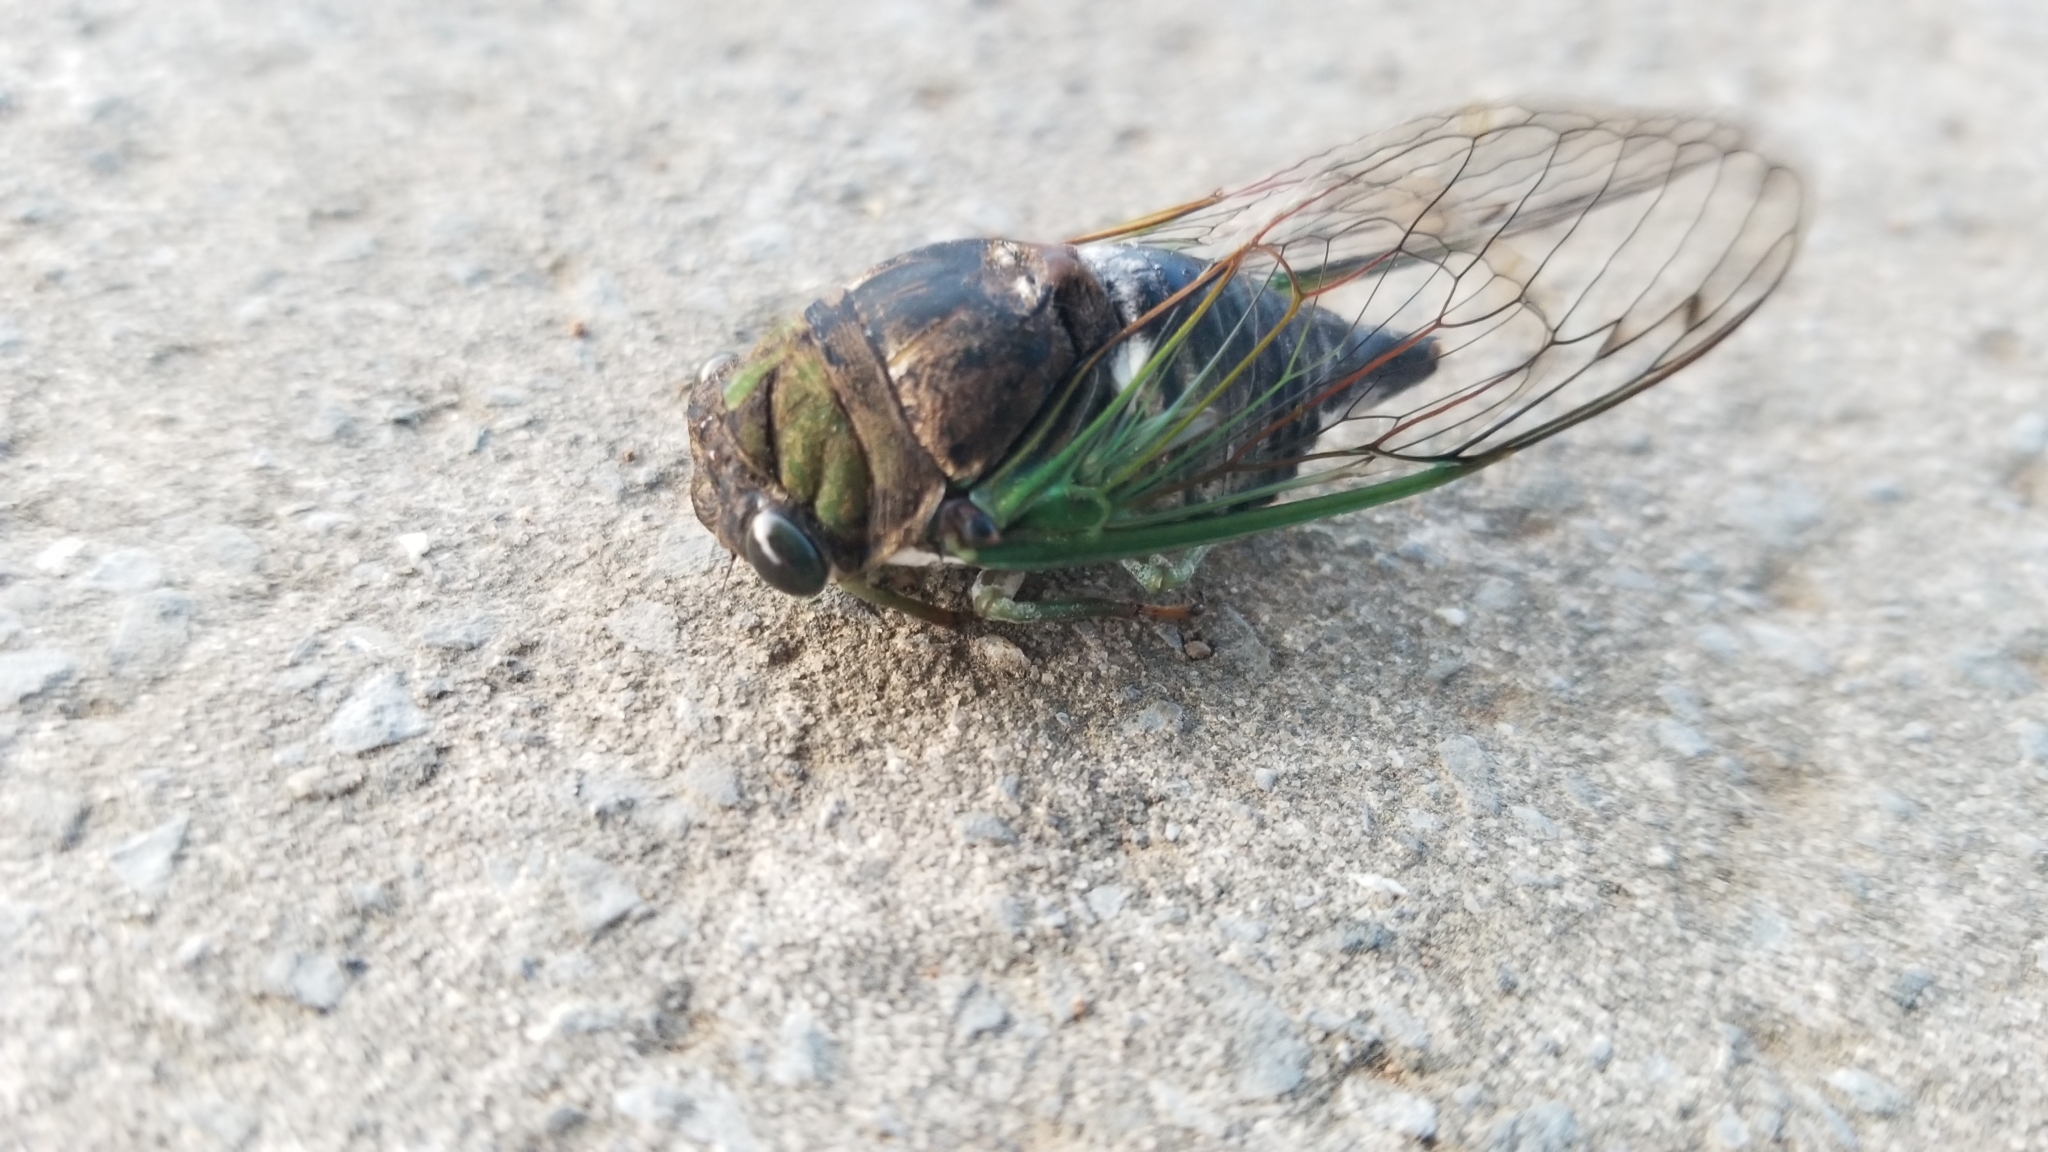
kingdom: Animalia
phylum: Arthropoda
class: Insecta
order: Hemiptera
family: Cicadidae
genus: Neotibicen
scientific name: Neotibicen tibicen
